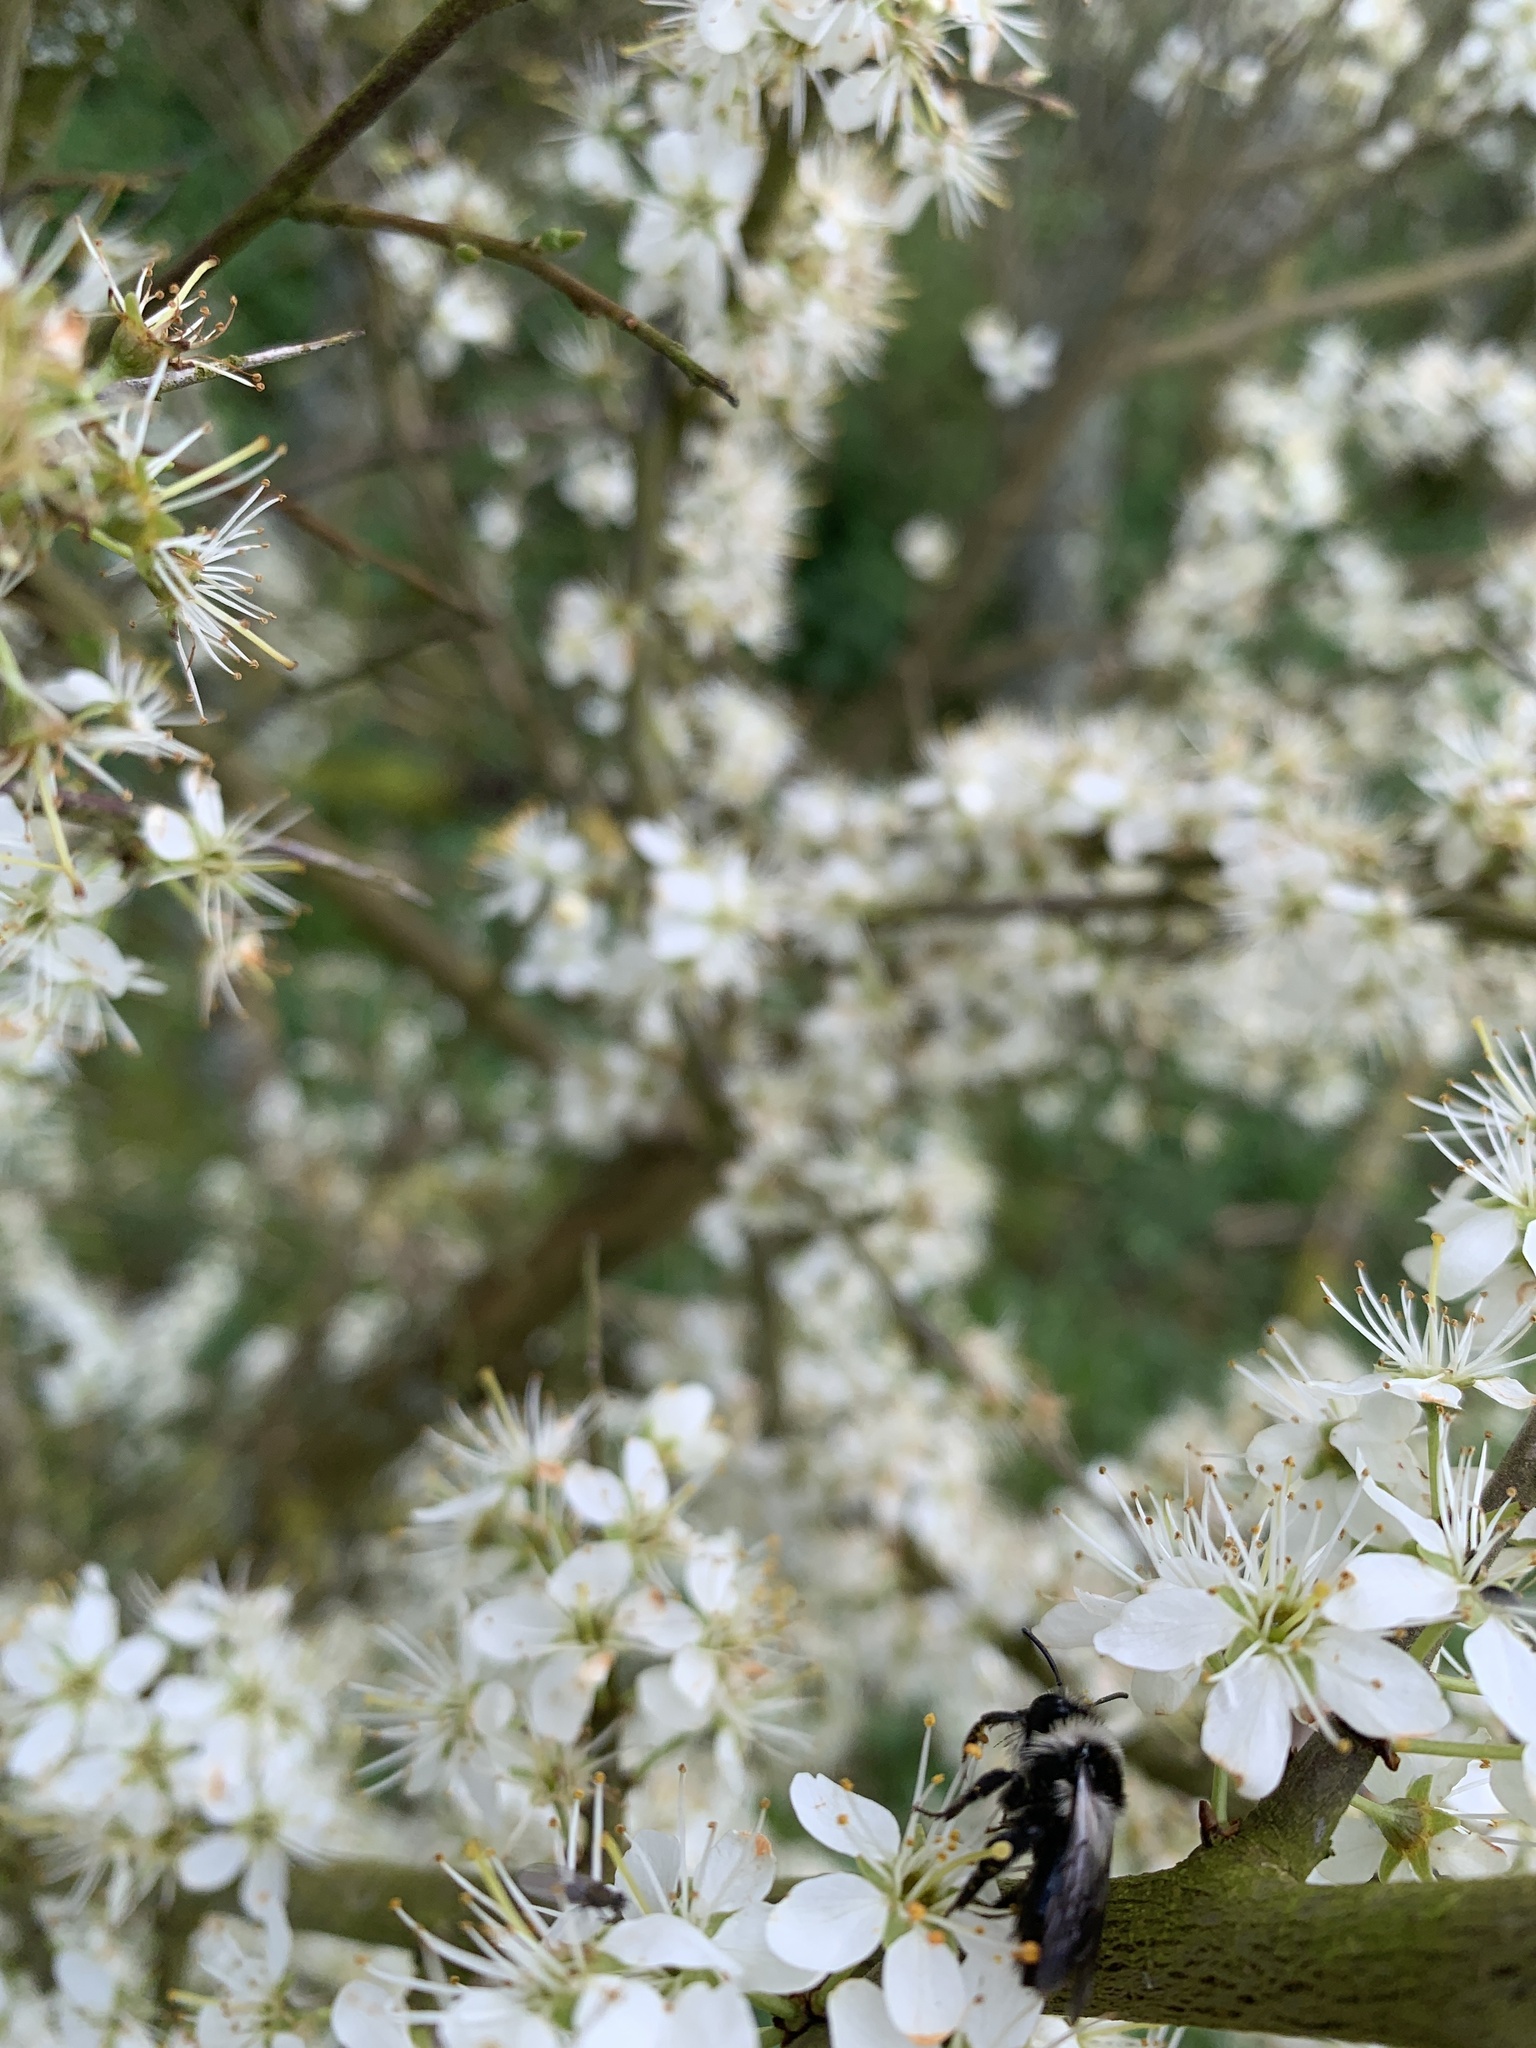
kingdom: Plantae
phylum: Tracheophyta
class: Magnoliopsida
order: Rosales
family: Rosaceae
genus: Prunus
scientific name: Prunus spinosa
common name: Blackthorn
